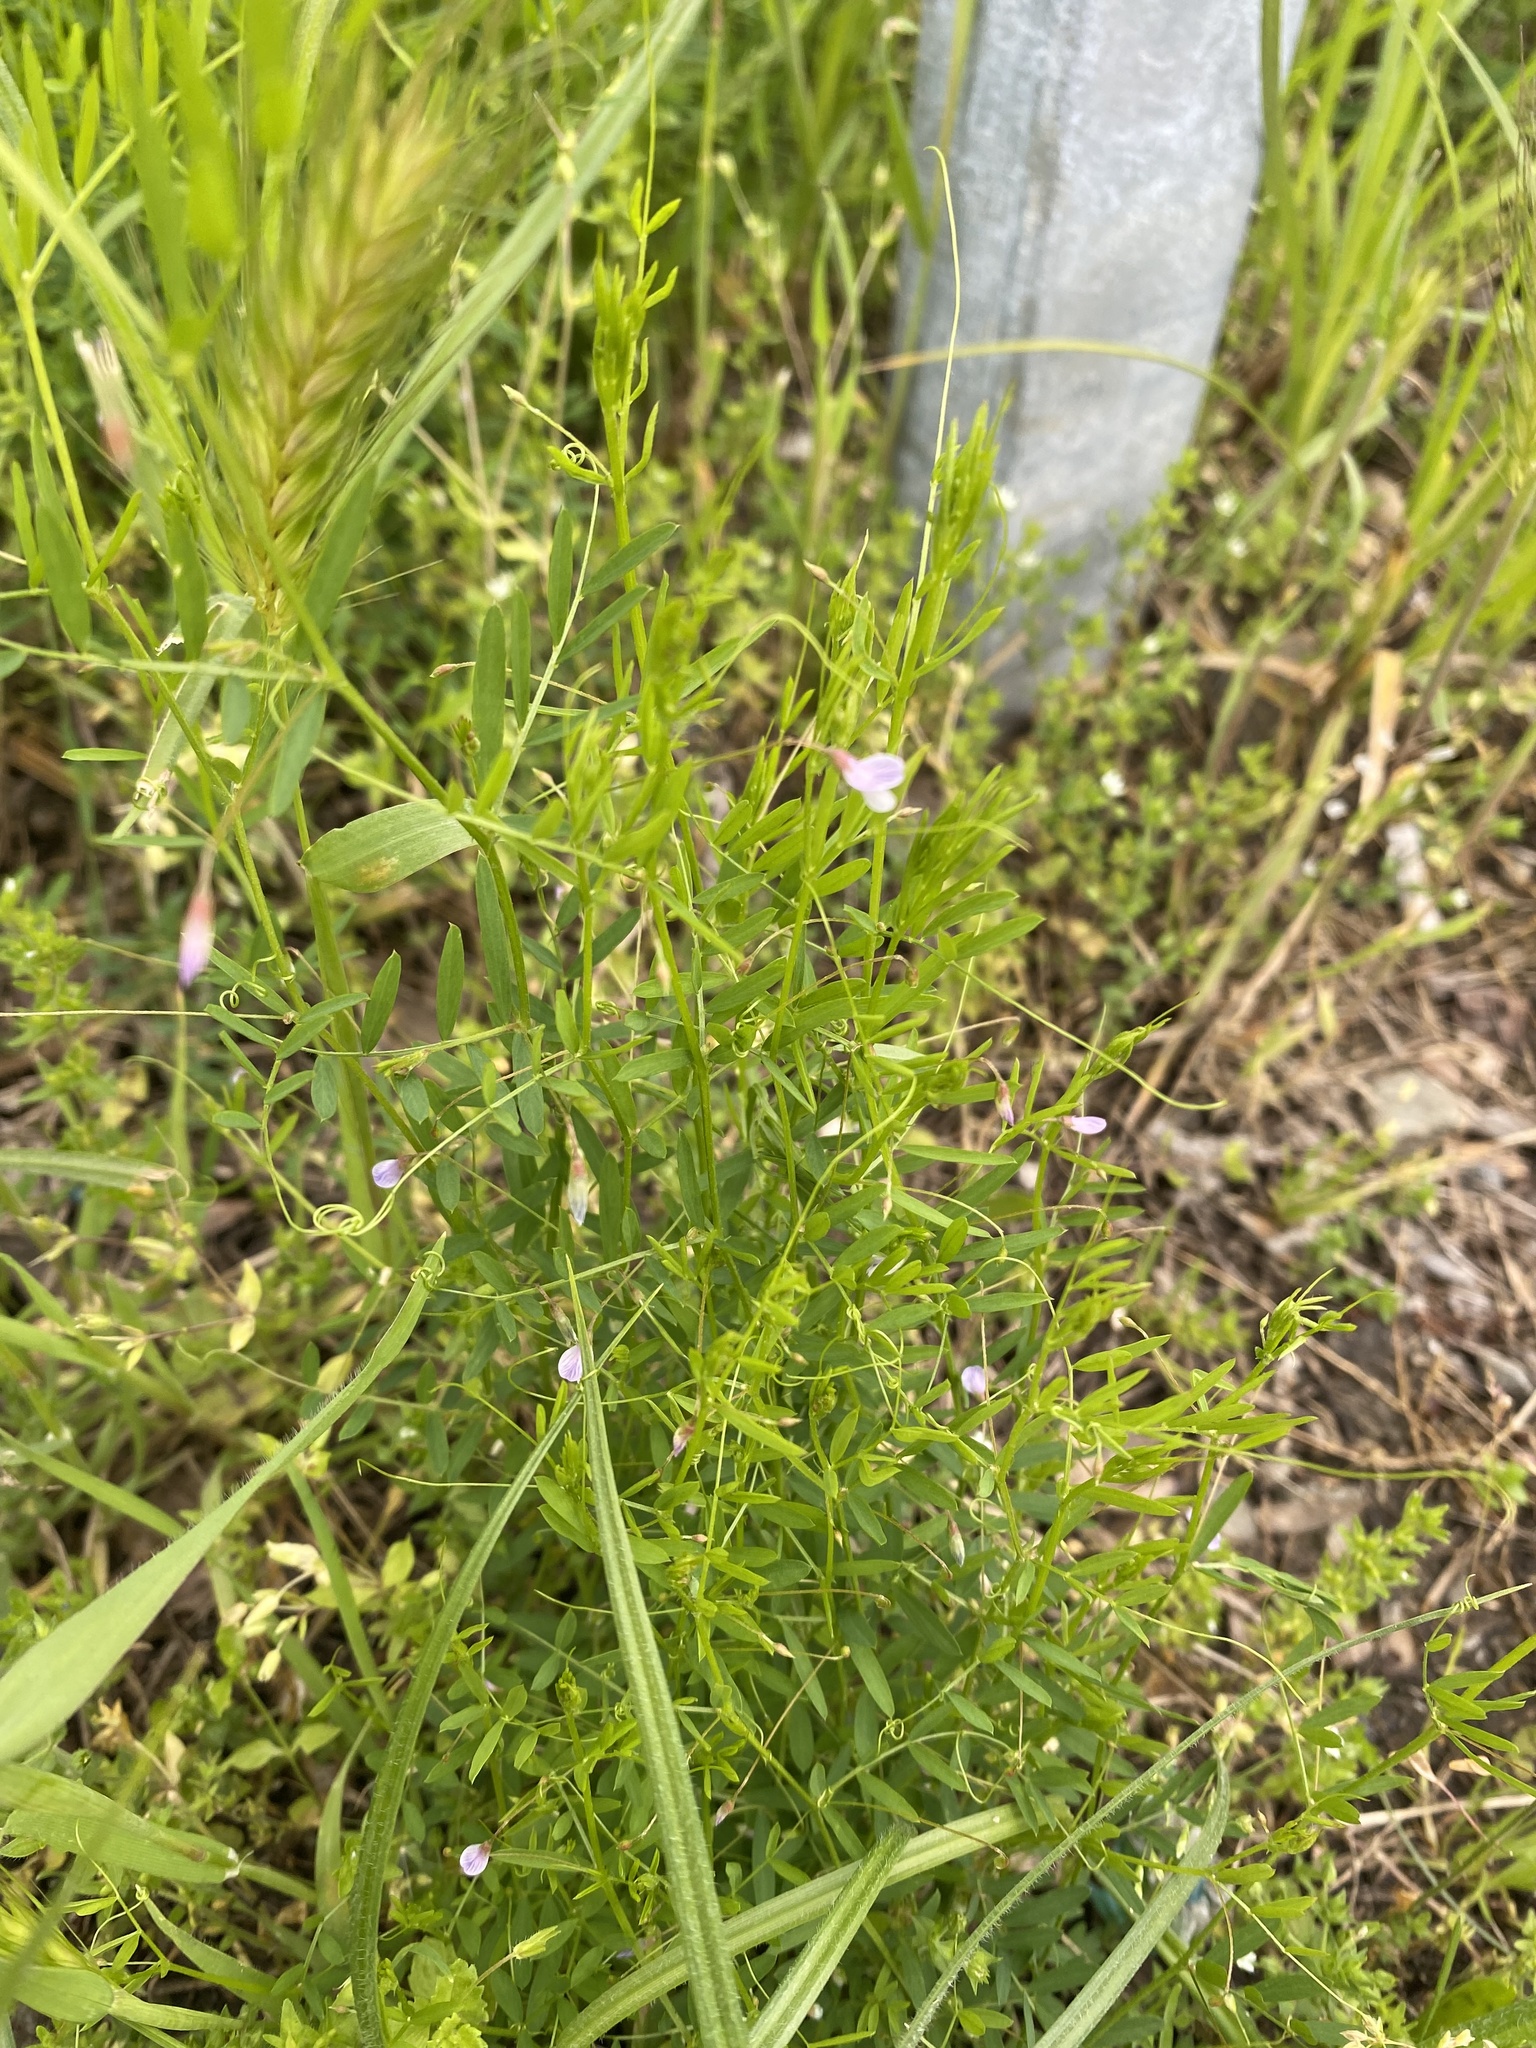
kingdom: Plantae
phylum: Tracheophyta
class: Magnoliopsida
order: Fabales
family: Fabaceae
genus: Vicia
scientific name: Vicia tetrasperma
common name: Smooth tare
